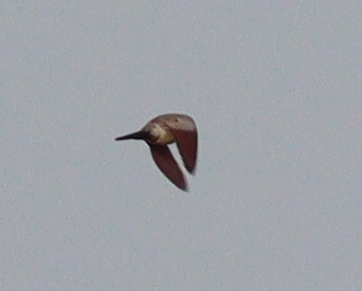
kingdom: Animalia
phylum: Chordata
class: Aves
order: Columbiformes
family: Columbidae
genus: Oena
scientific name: Oena capensis
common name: Namaqua dove
